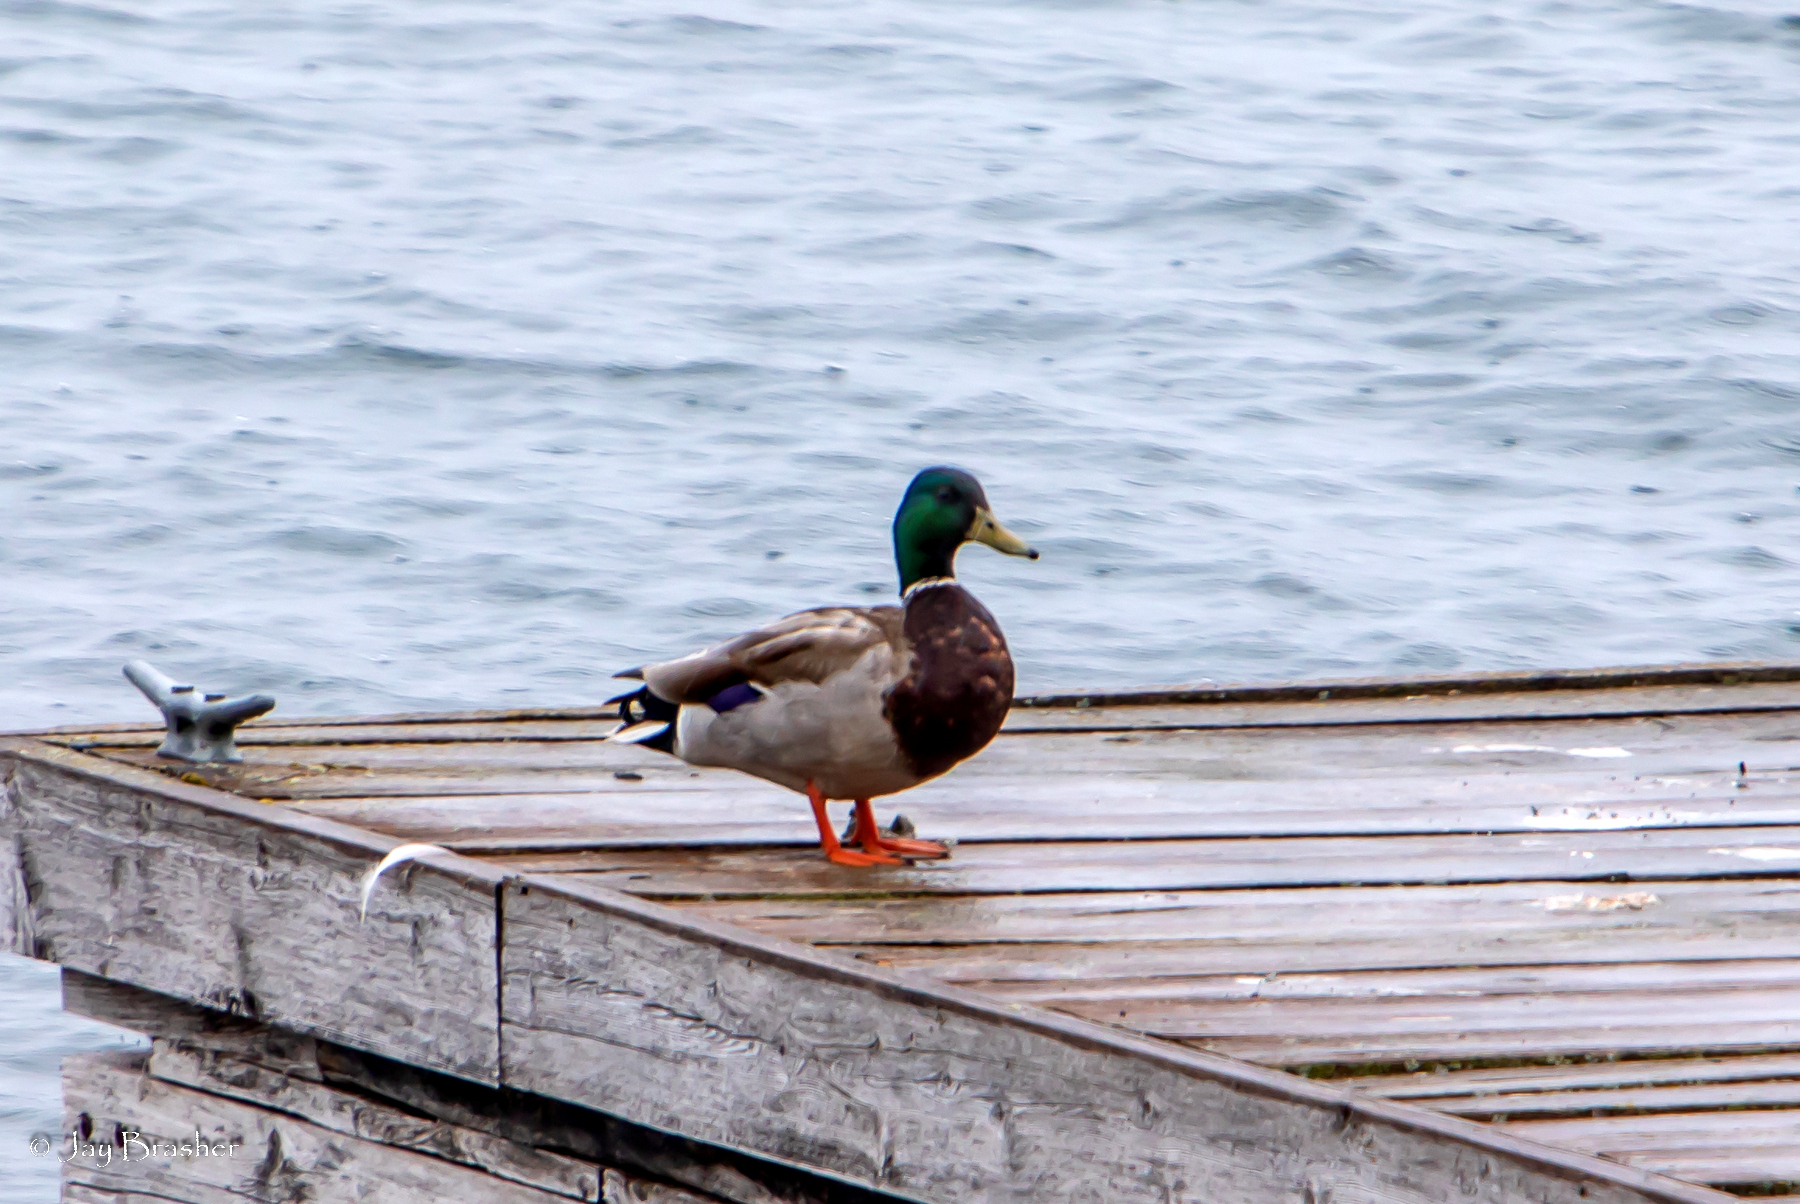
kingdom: Animalia
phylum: Chordata
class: Aves
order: Anseriformes
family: Anatidae
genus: Anas
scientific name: Anas platyrhynchos
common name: Mallard
